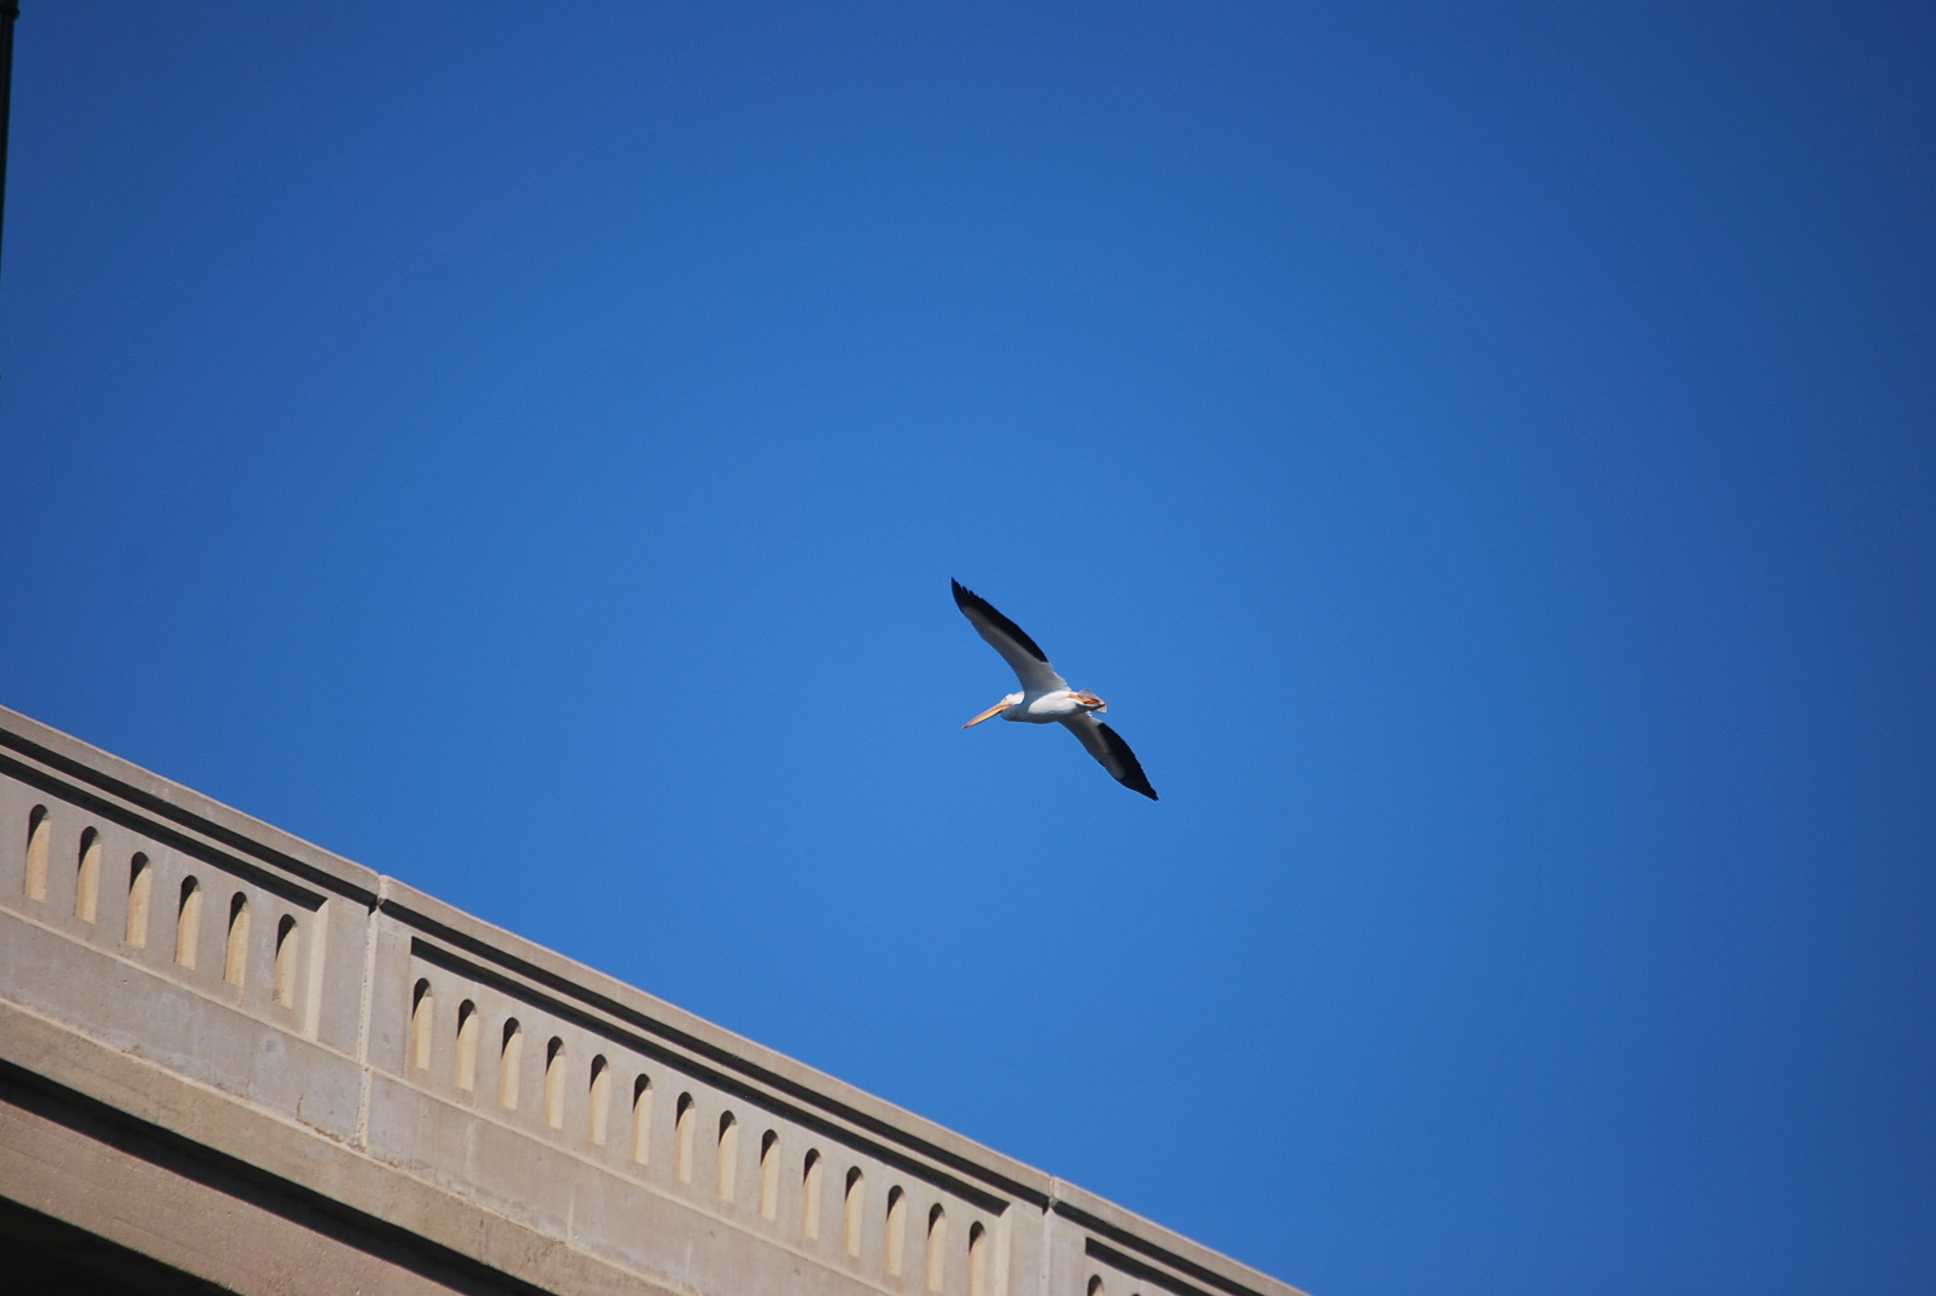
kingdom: Animalia
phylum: Chordata
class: Aves
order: Pelecaniformes
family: Pelecanidae
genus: Pelecanus
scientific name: Pelecanus erythrorhynchos
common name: American white pelican
